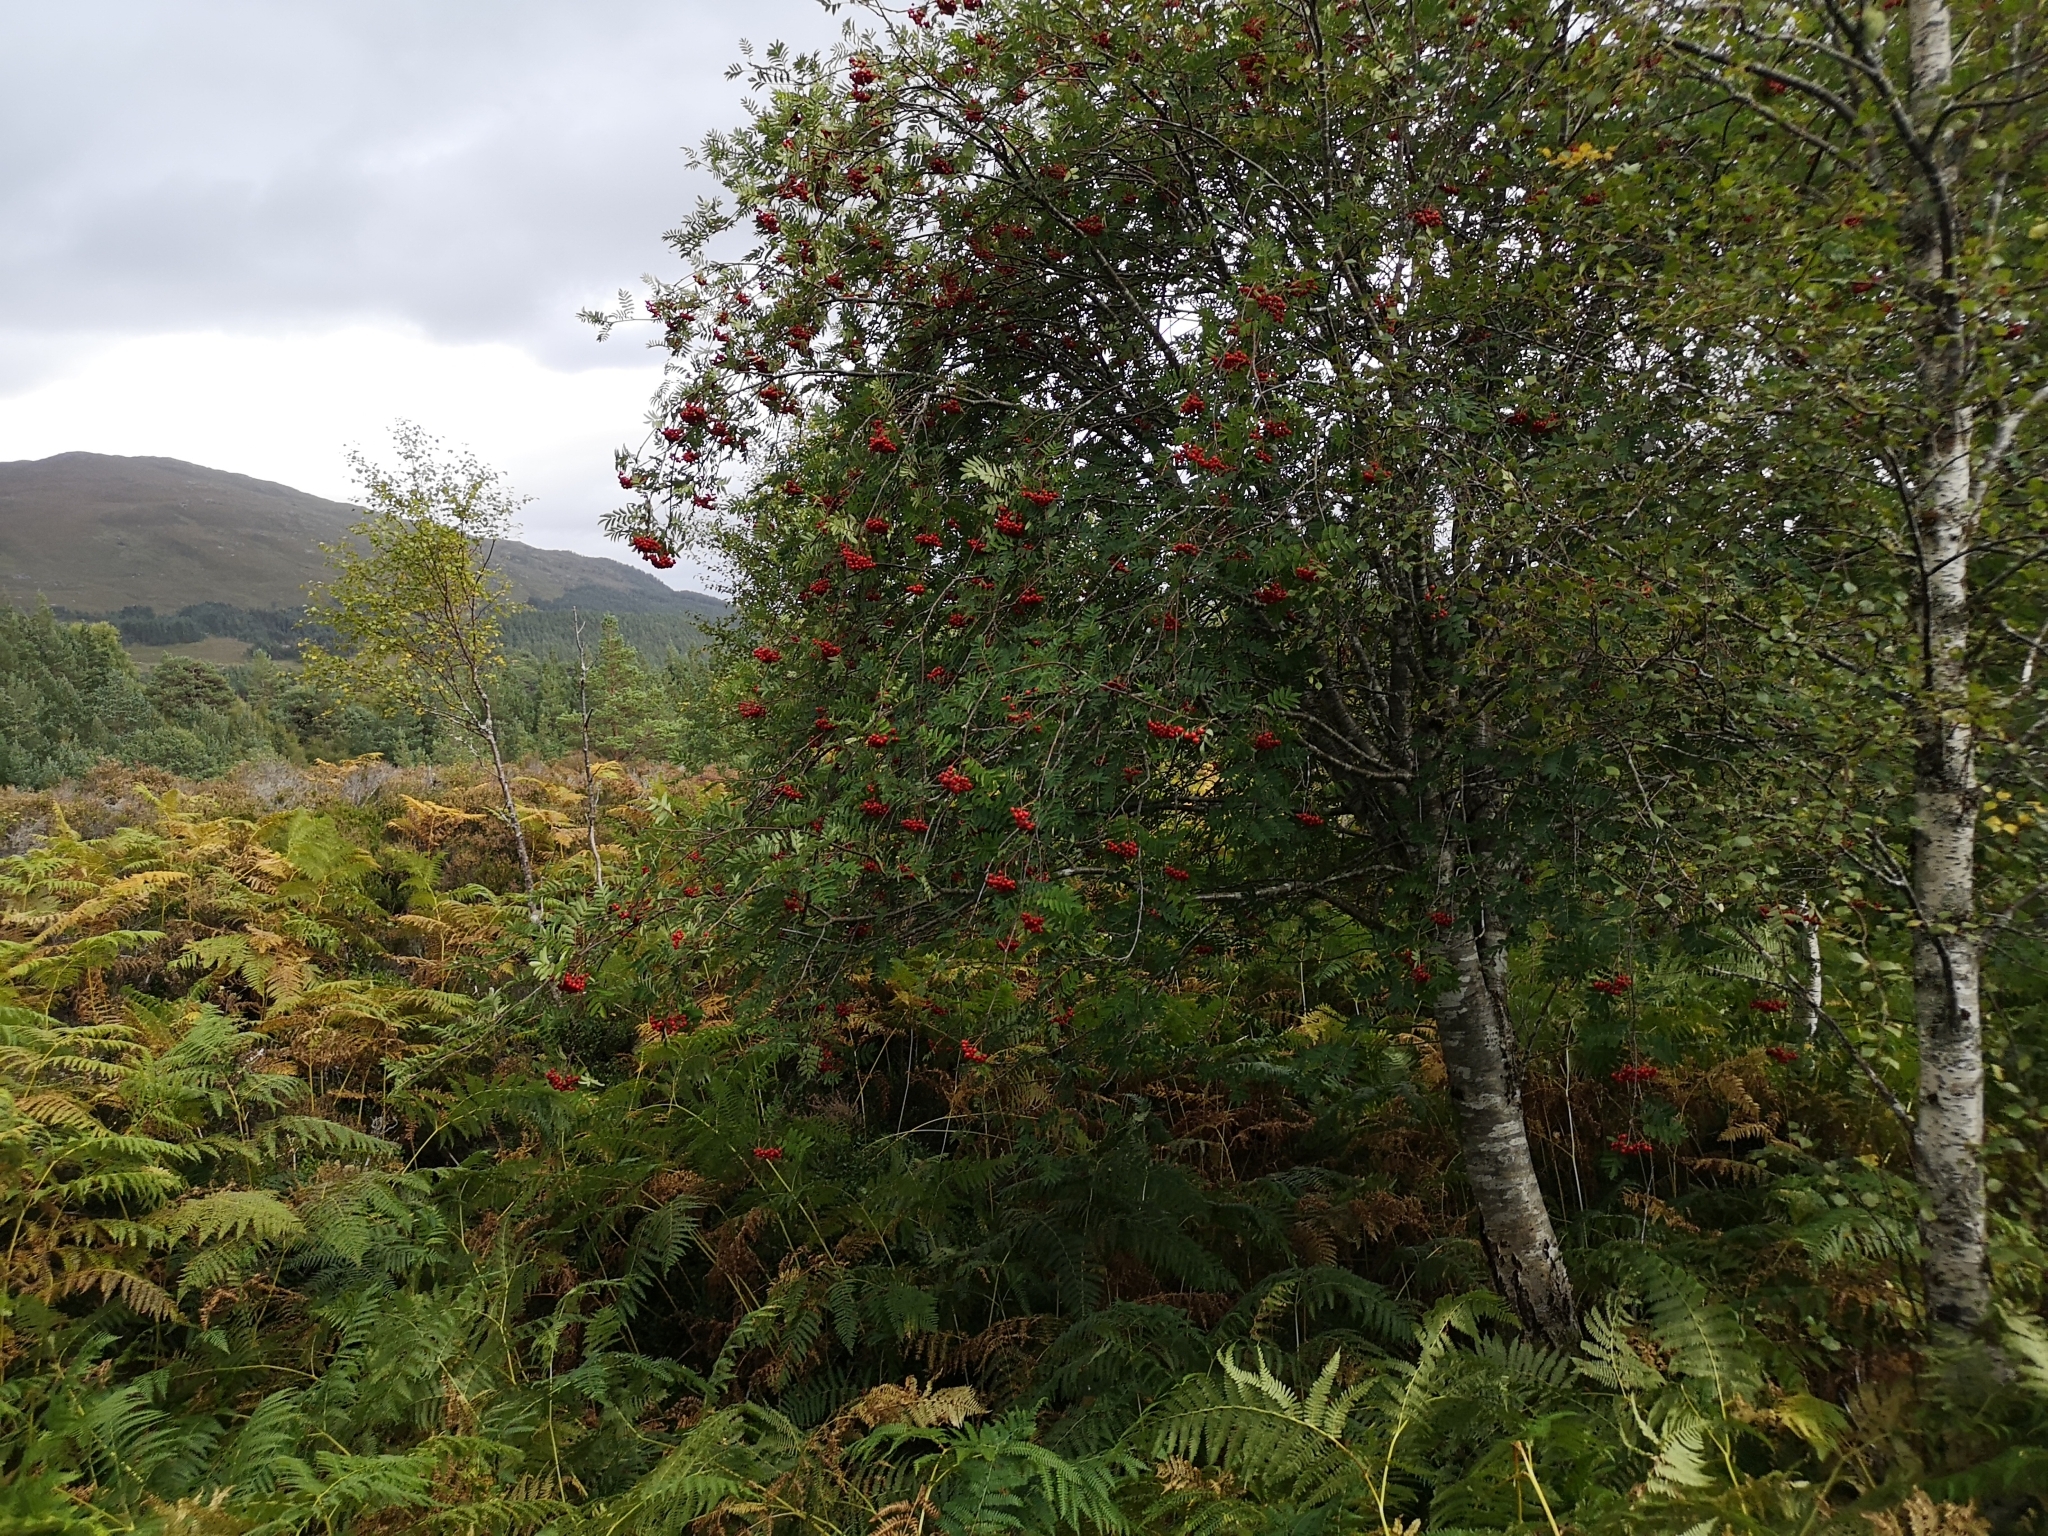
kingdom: Plantae
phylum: Tracheophyta
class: Magnoliopsida
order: Rosales
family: Rosaceae
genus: Sorbus
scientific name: Sorbus aucuparia
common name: Rowan
